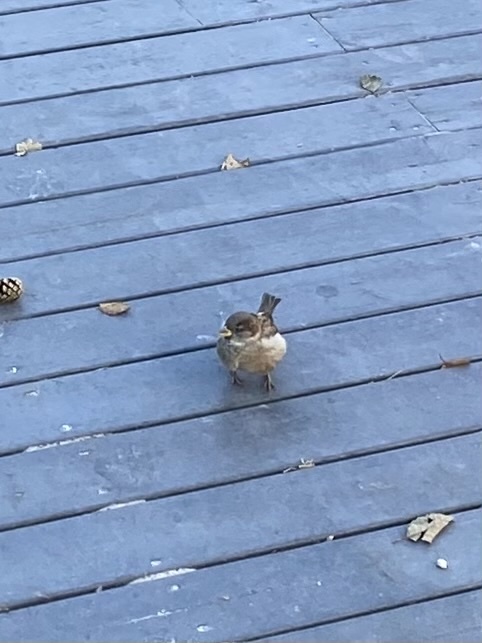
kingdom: Animalia
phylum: Chordata
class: Aves
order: Passeriformes
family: Passeridae
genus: Passer
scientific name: Passer domesticus
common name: House sparrow
